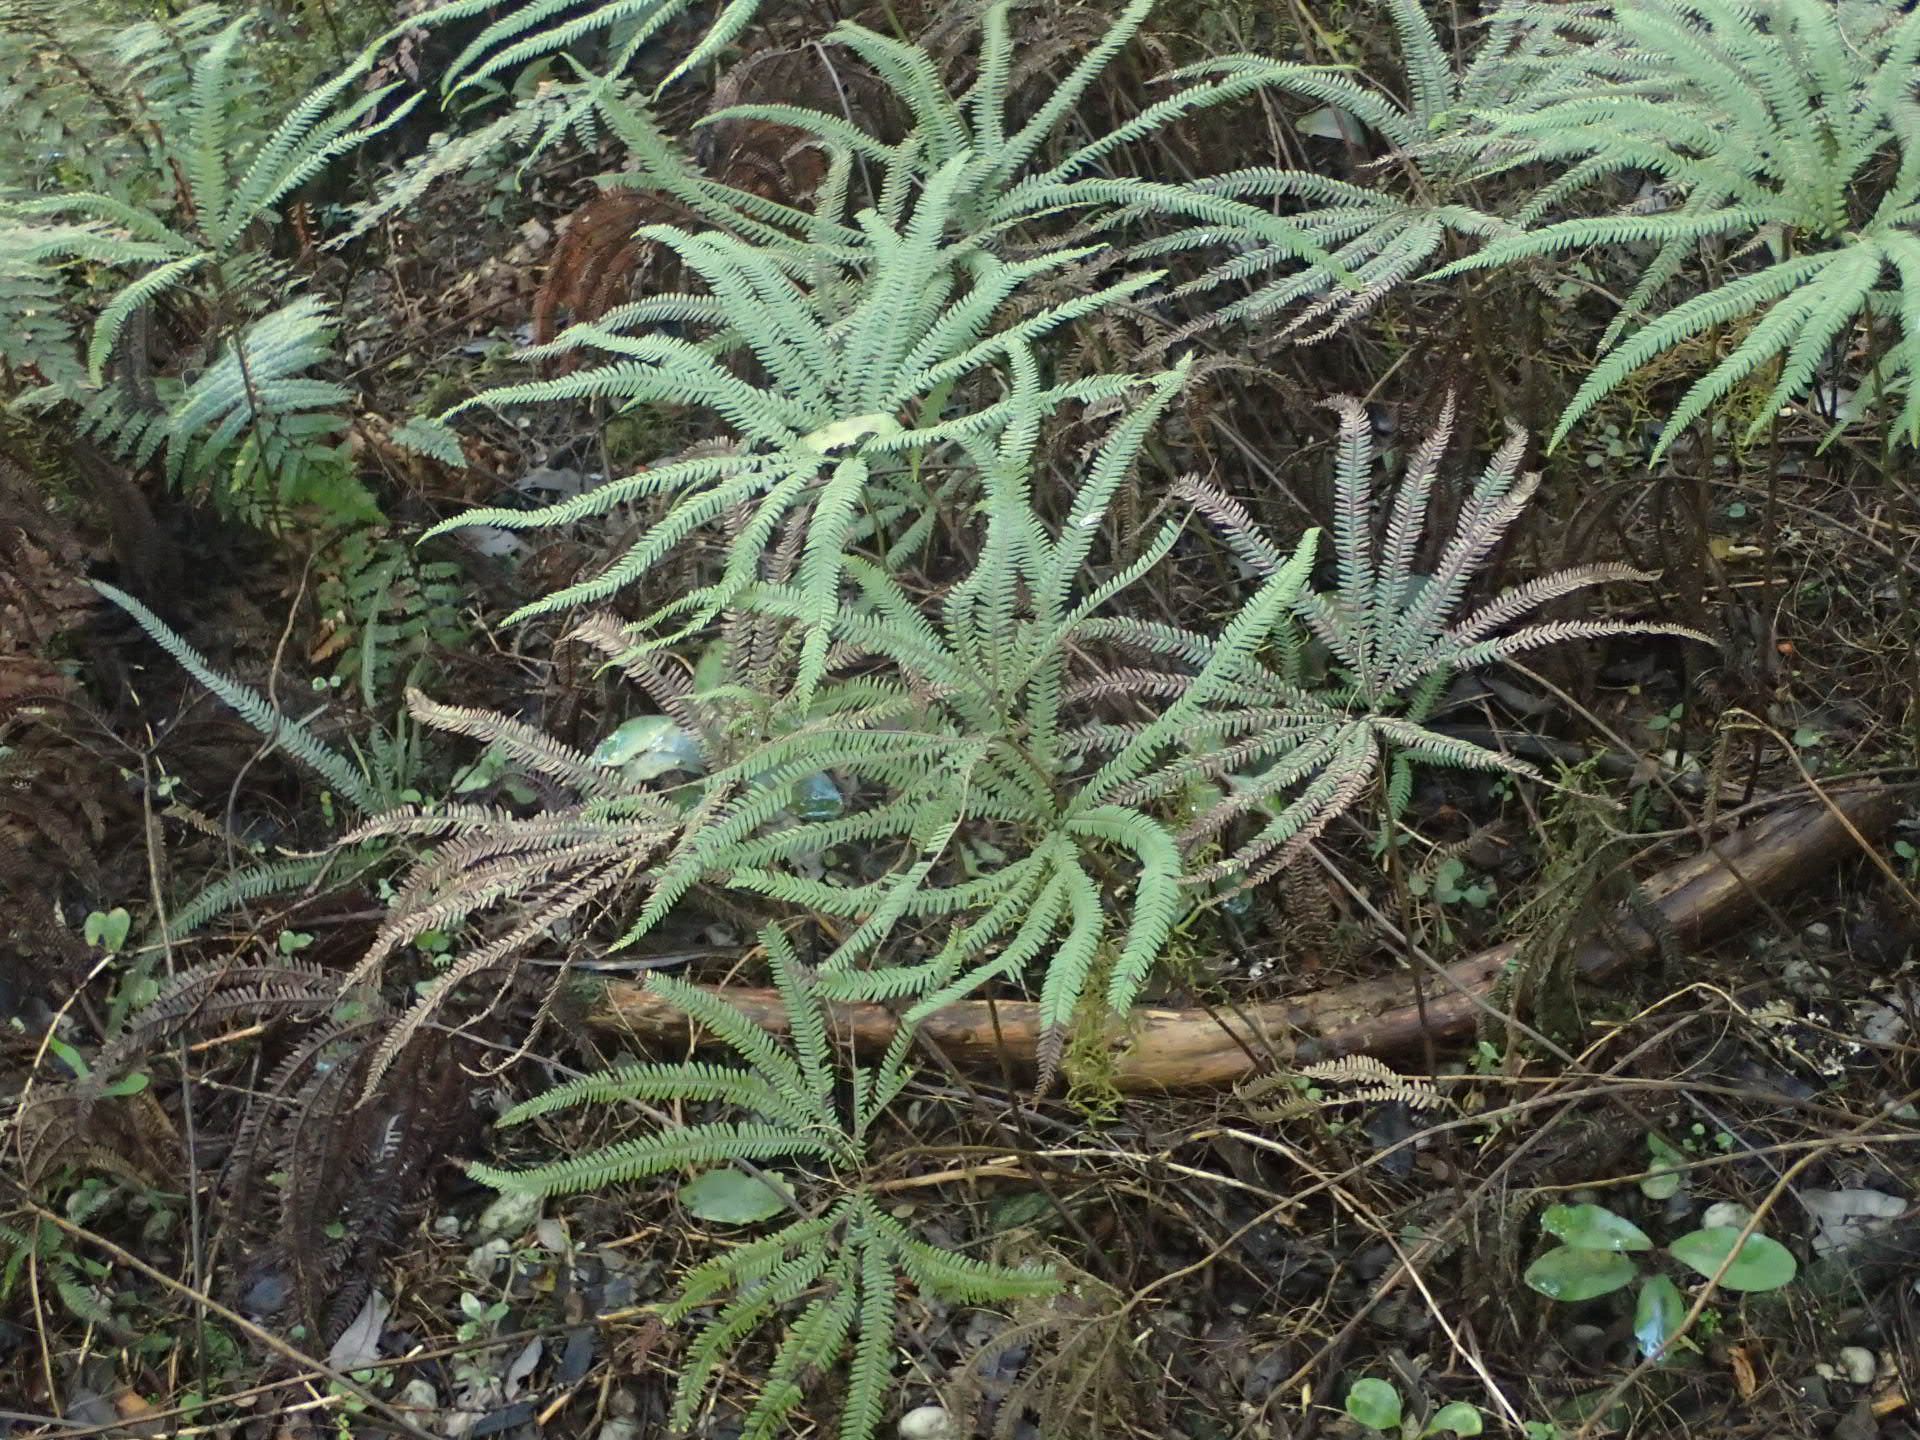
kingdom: Plantae
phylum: Tracheophyta
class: Polypodiopsida
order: Gleicheniales
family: Gleicheniaceae
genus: Sticherus
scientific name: Sticherus cunninghamii
